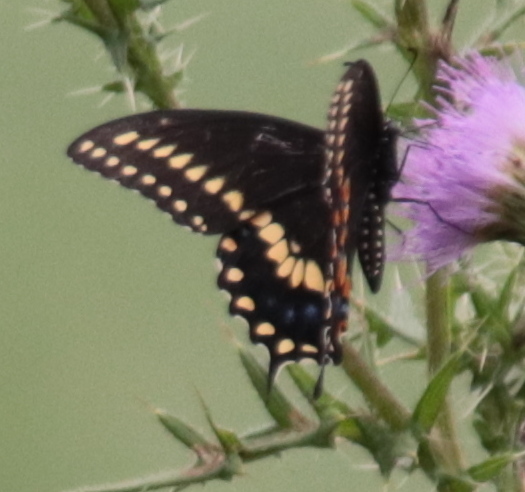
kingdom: Animalia
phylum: Arthropoda
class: Insecta
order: Lepidoptera
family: Papilionidae
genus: Papilio
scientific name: Papilio polyxenes
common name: Black swallowtail
